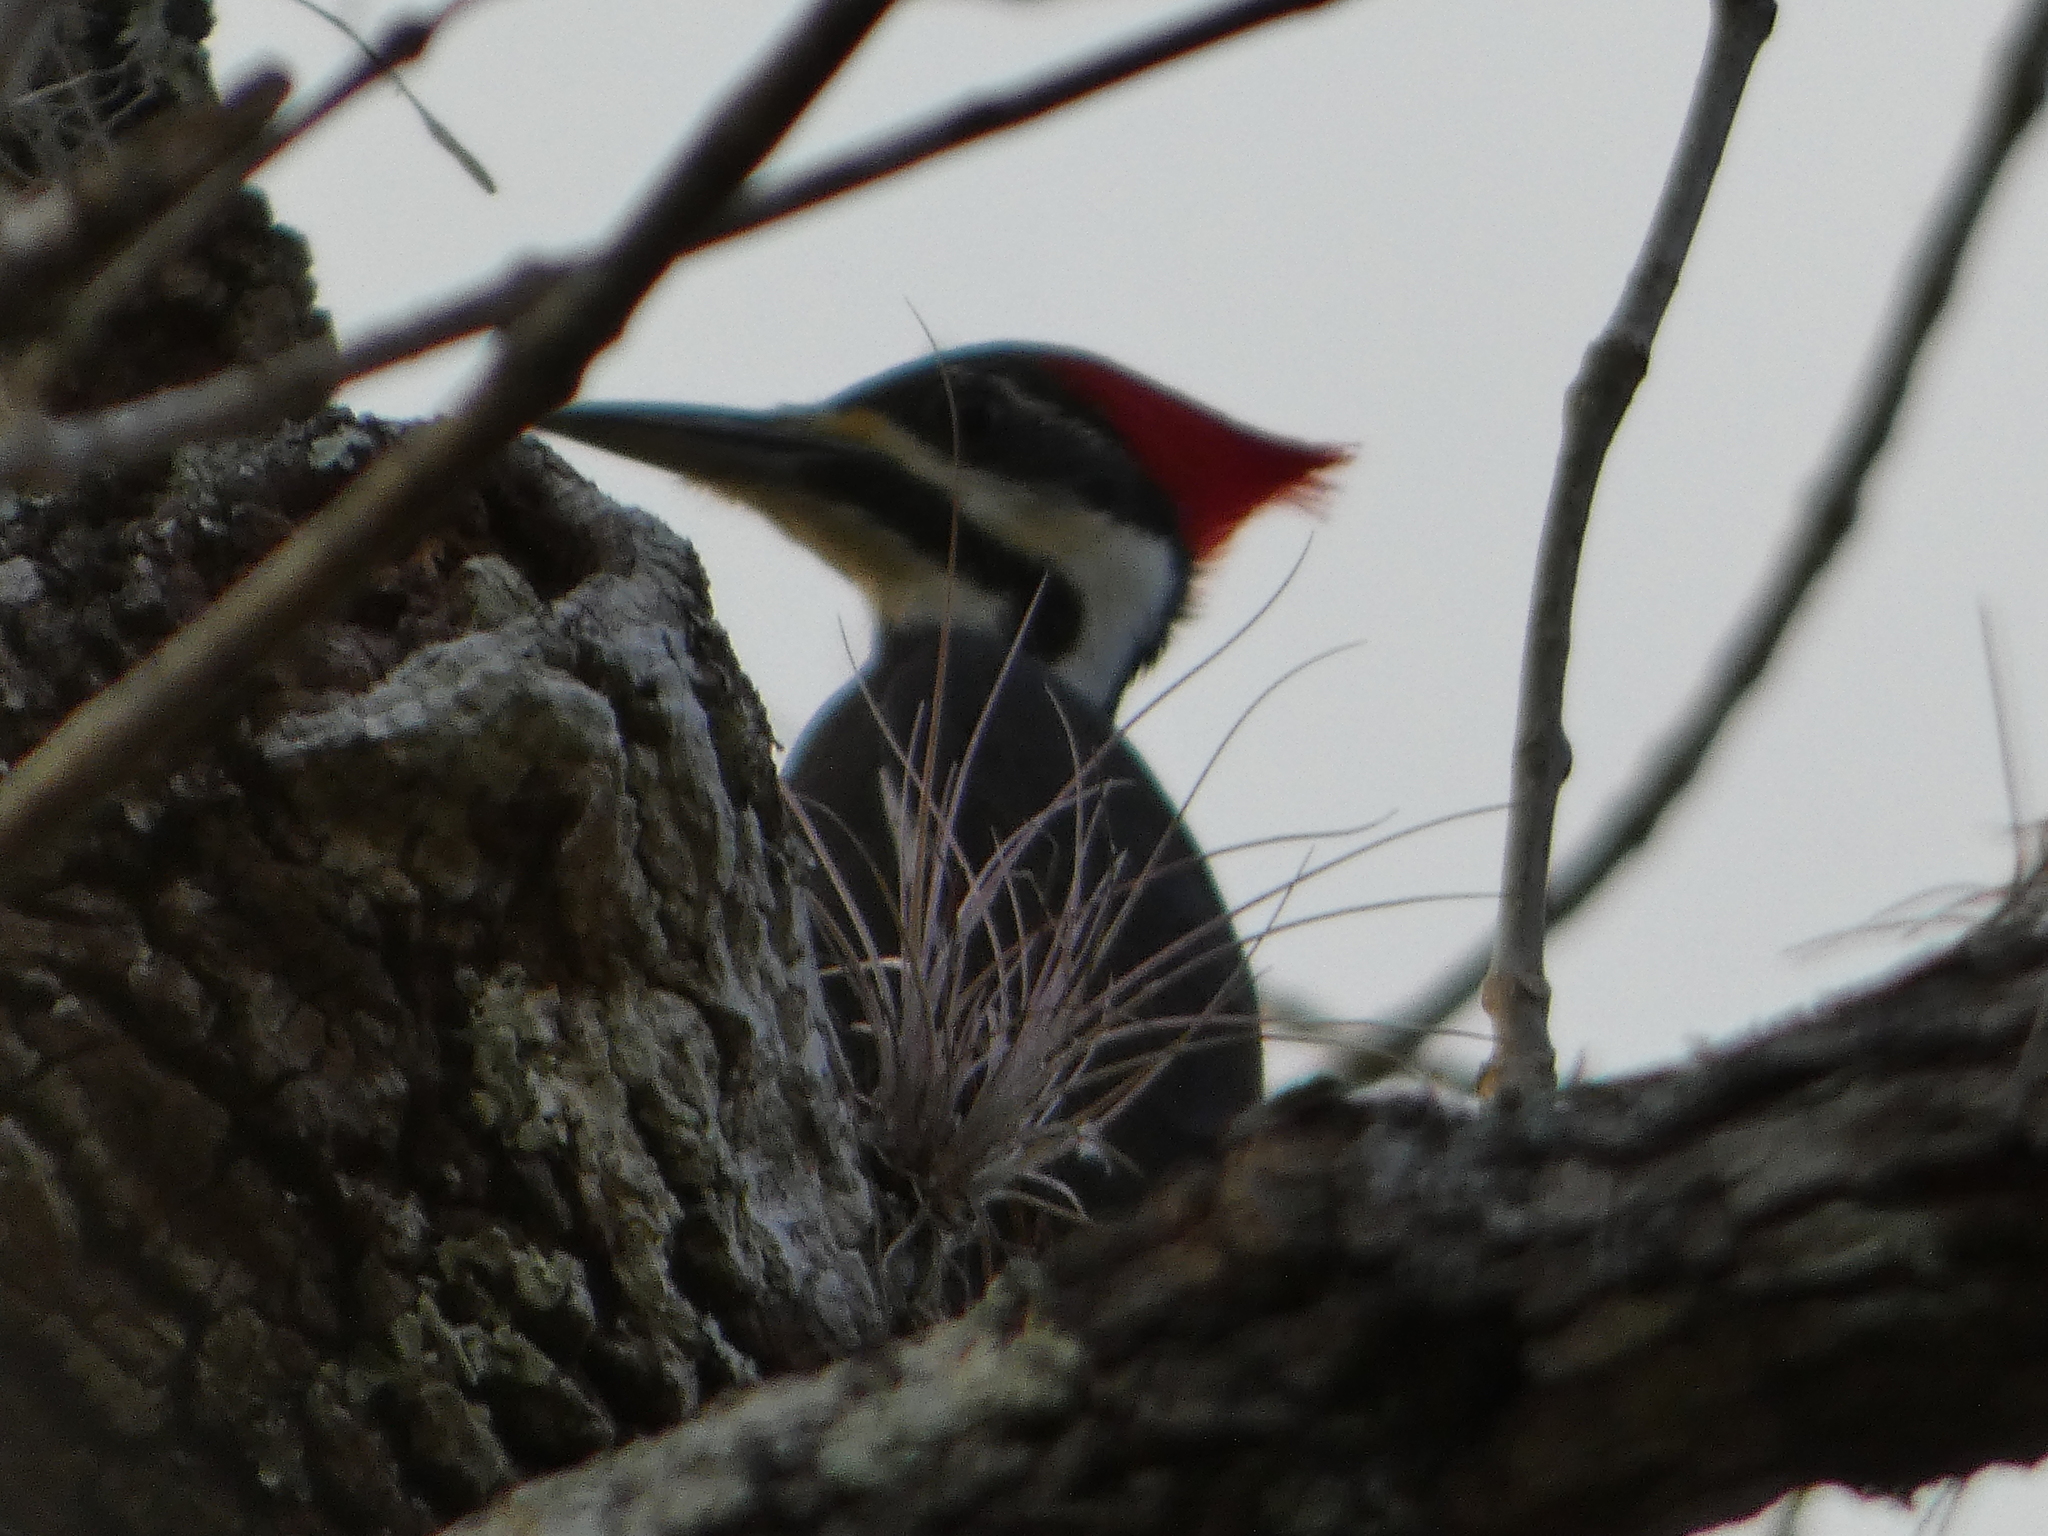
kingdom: Animalia
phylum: Chordata
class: Aves
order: Piciformes
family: Picidae
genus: Dryocopus
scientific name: Dryocopus pileatus
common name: Pileated woodpecker
